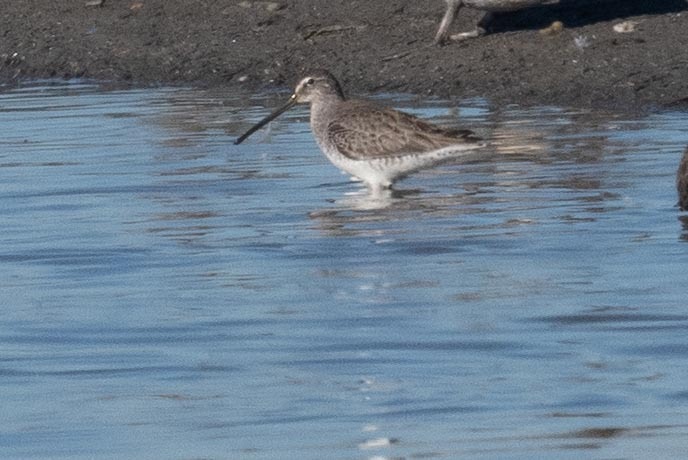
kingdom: Animalia
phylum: Chordata
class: Aves
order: Charadriiformes
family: Scolopacidae
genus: Limnodromus
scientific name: Limnodromus scolopaceus
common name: Long-billed dowitcher
